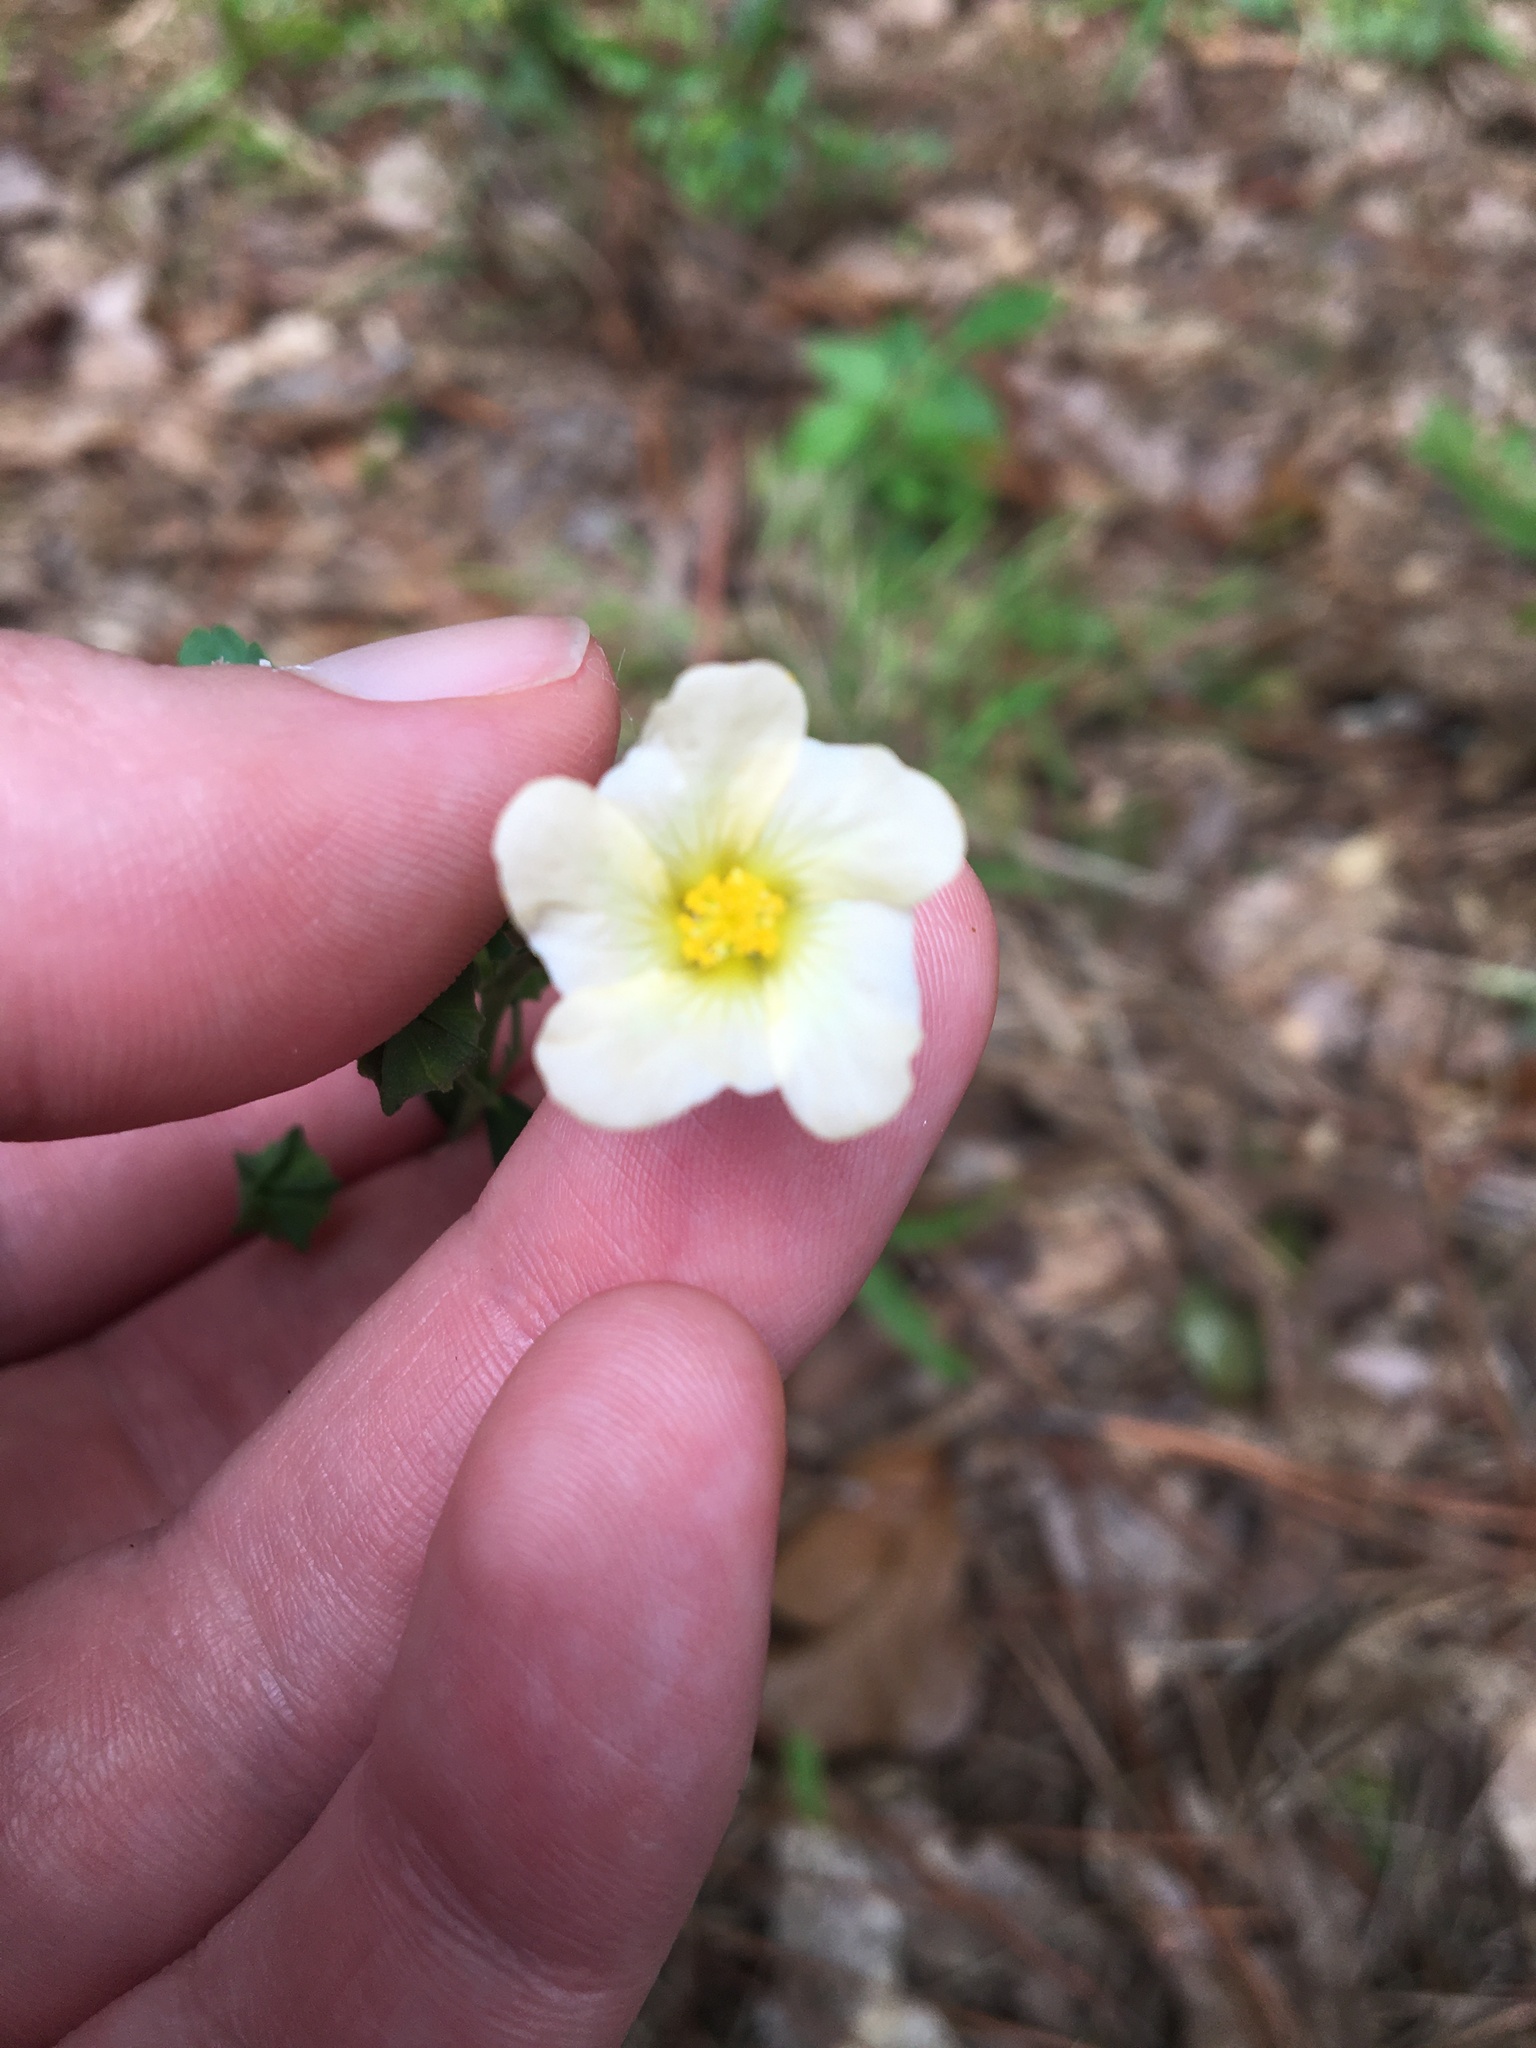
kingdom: Plantae
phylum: Tracheophyta
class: Magnoliopsida
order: Malvales
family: Malvaceae
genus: Sida
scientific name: Sida rhombifolia
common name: Queensland-hemp
